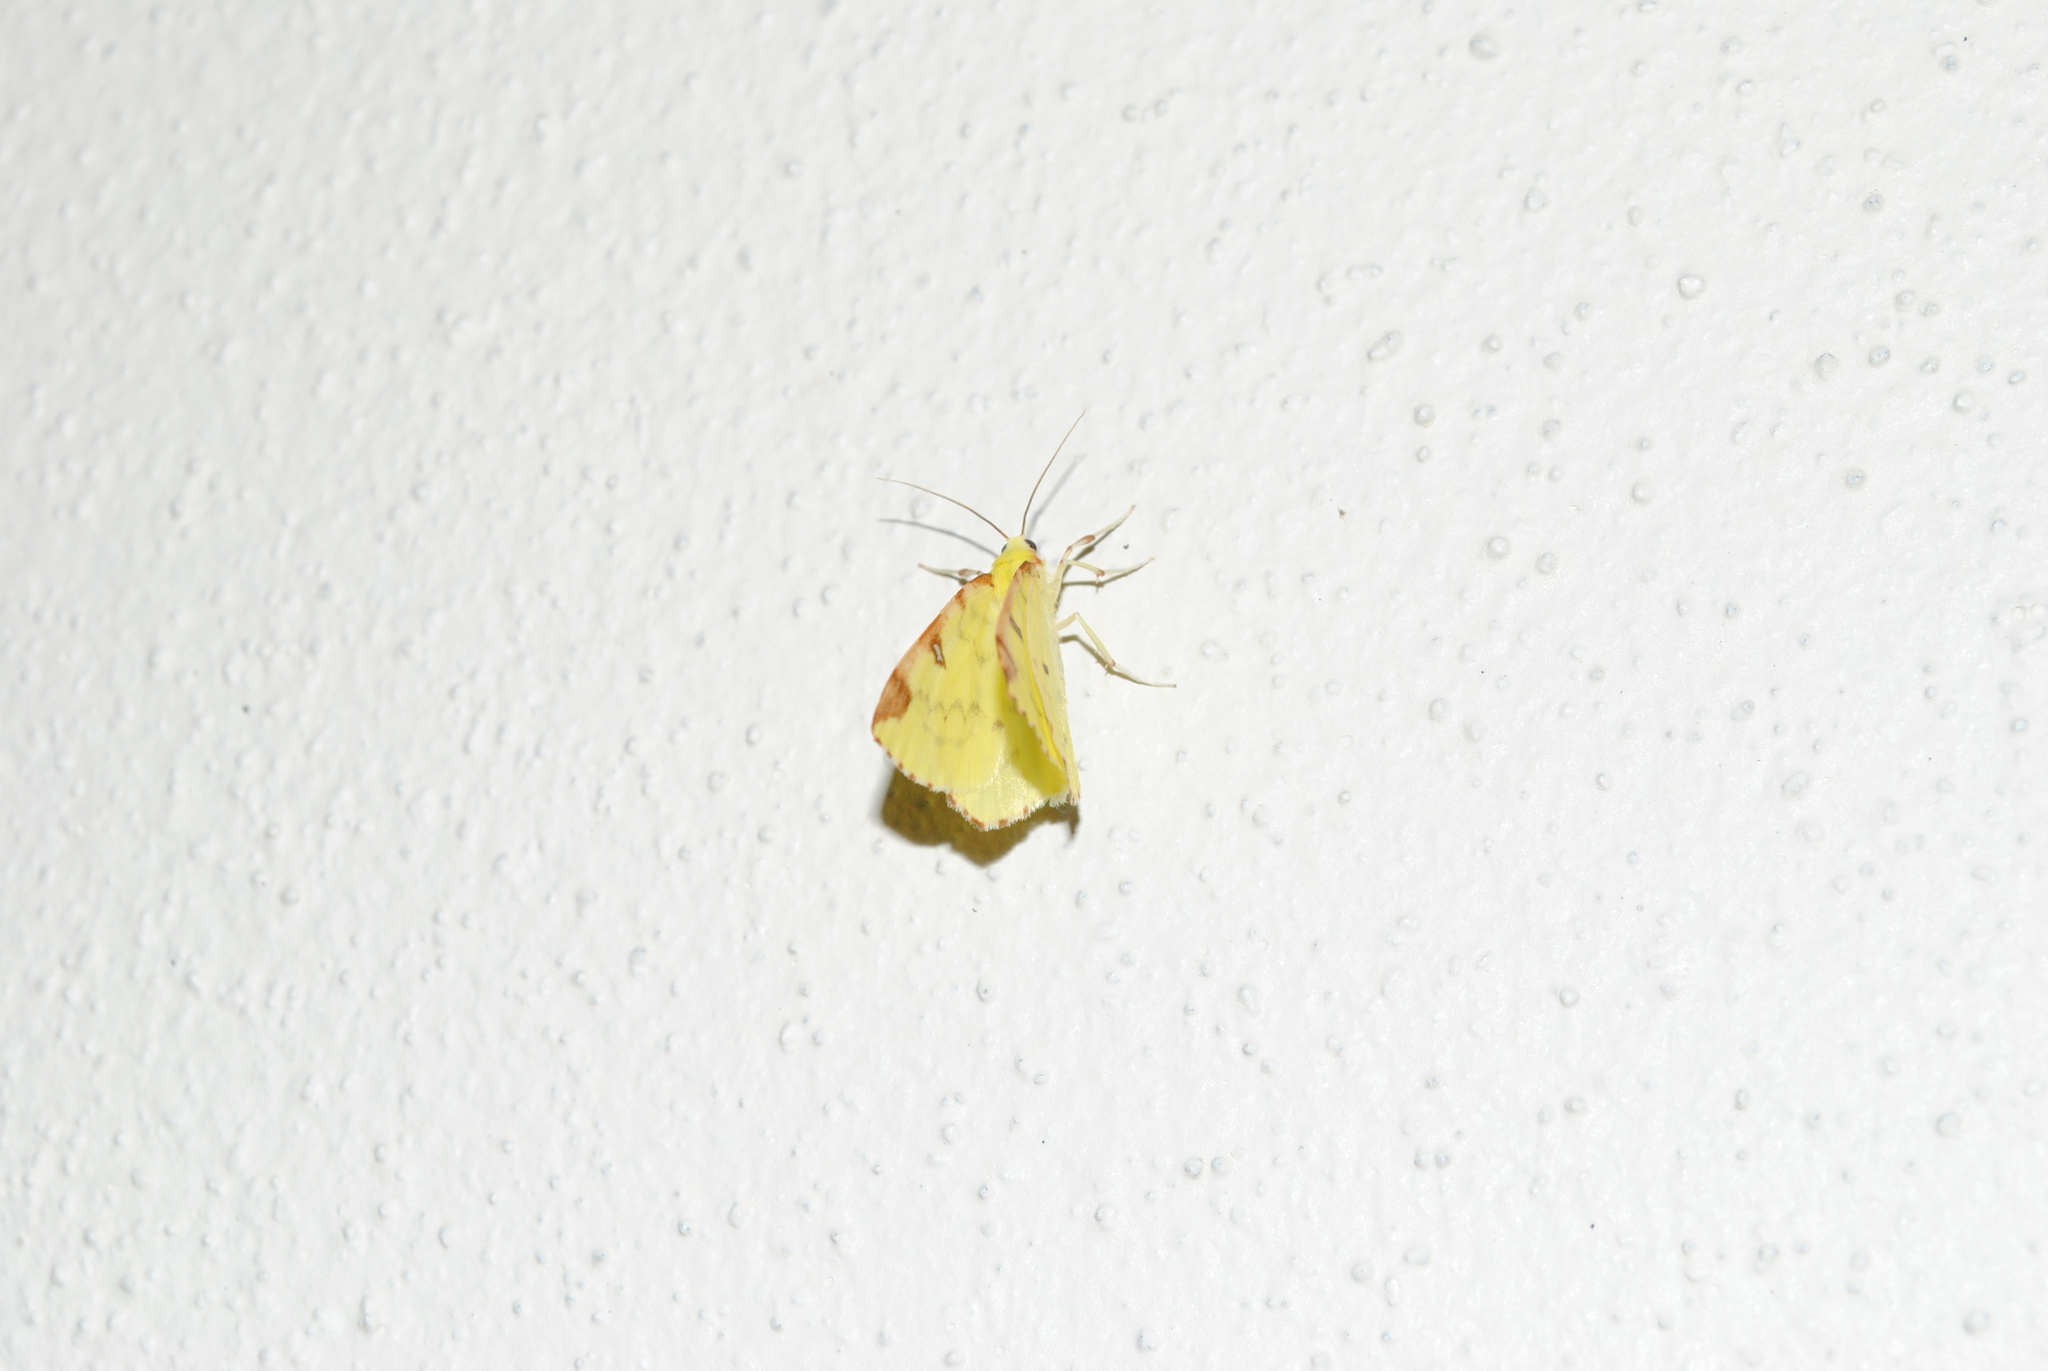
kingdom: Animalia
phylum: Arthropoda
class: Insecta
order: Lepidoptera
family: Geometridae
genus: Opisthograptis
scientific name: Opisthograptis luteolata
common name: Brimstone moth
